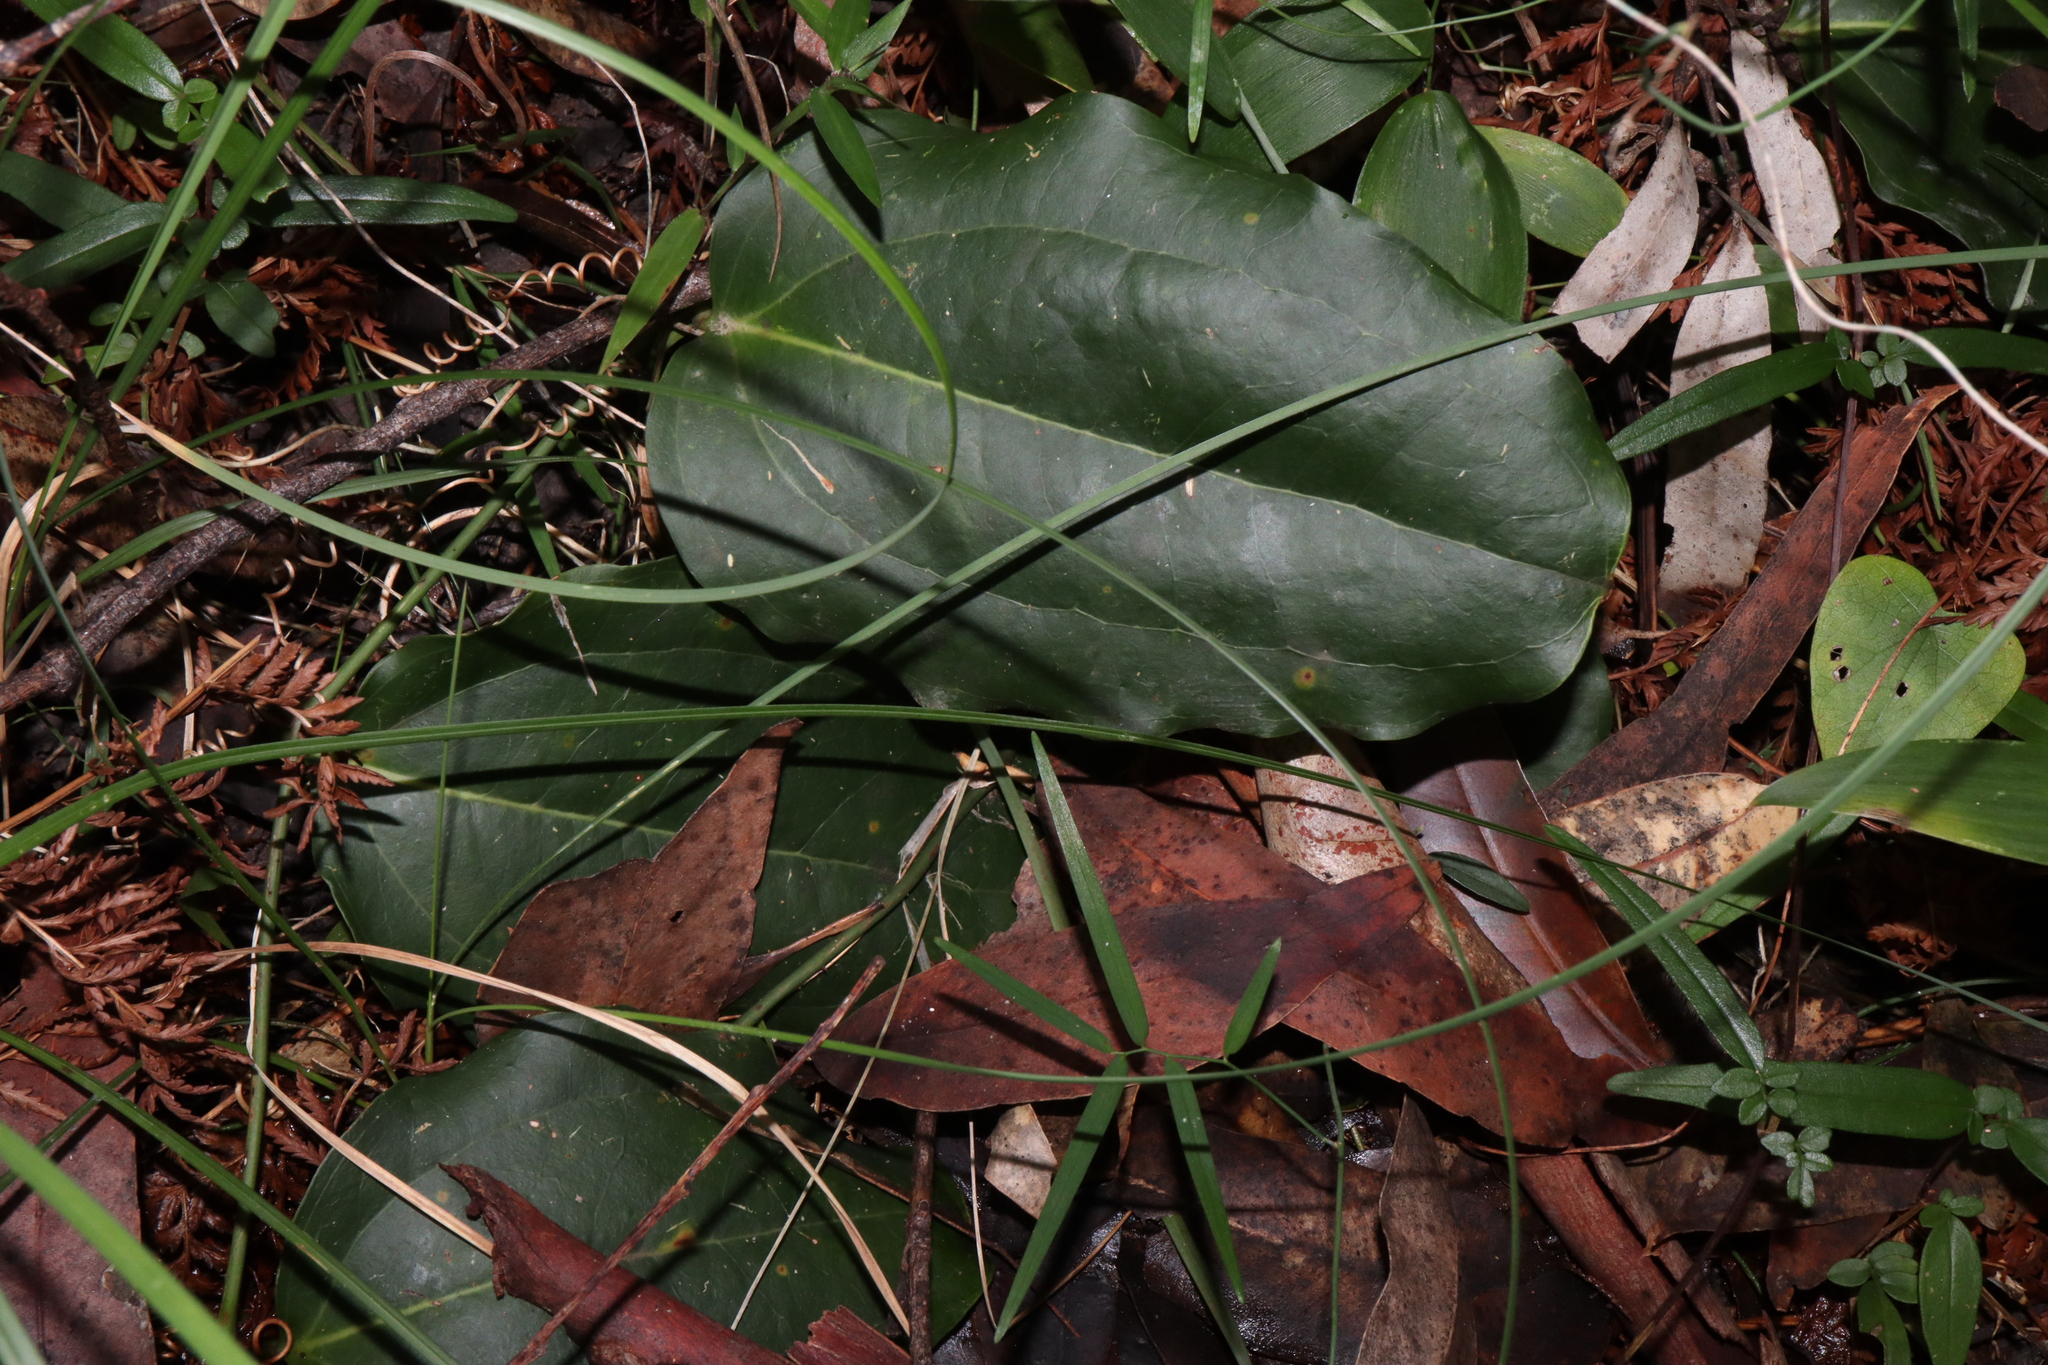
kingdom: Plantae
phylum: Tracheophyta
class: Liliopsida
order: Liliales
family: Smilacaceae
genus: Smilax
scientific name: Smilax australis
